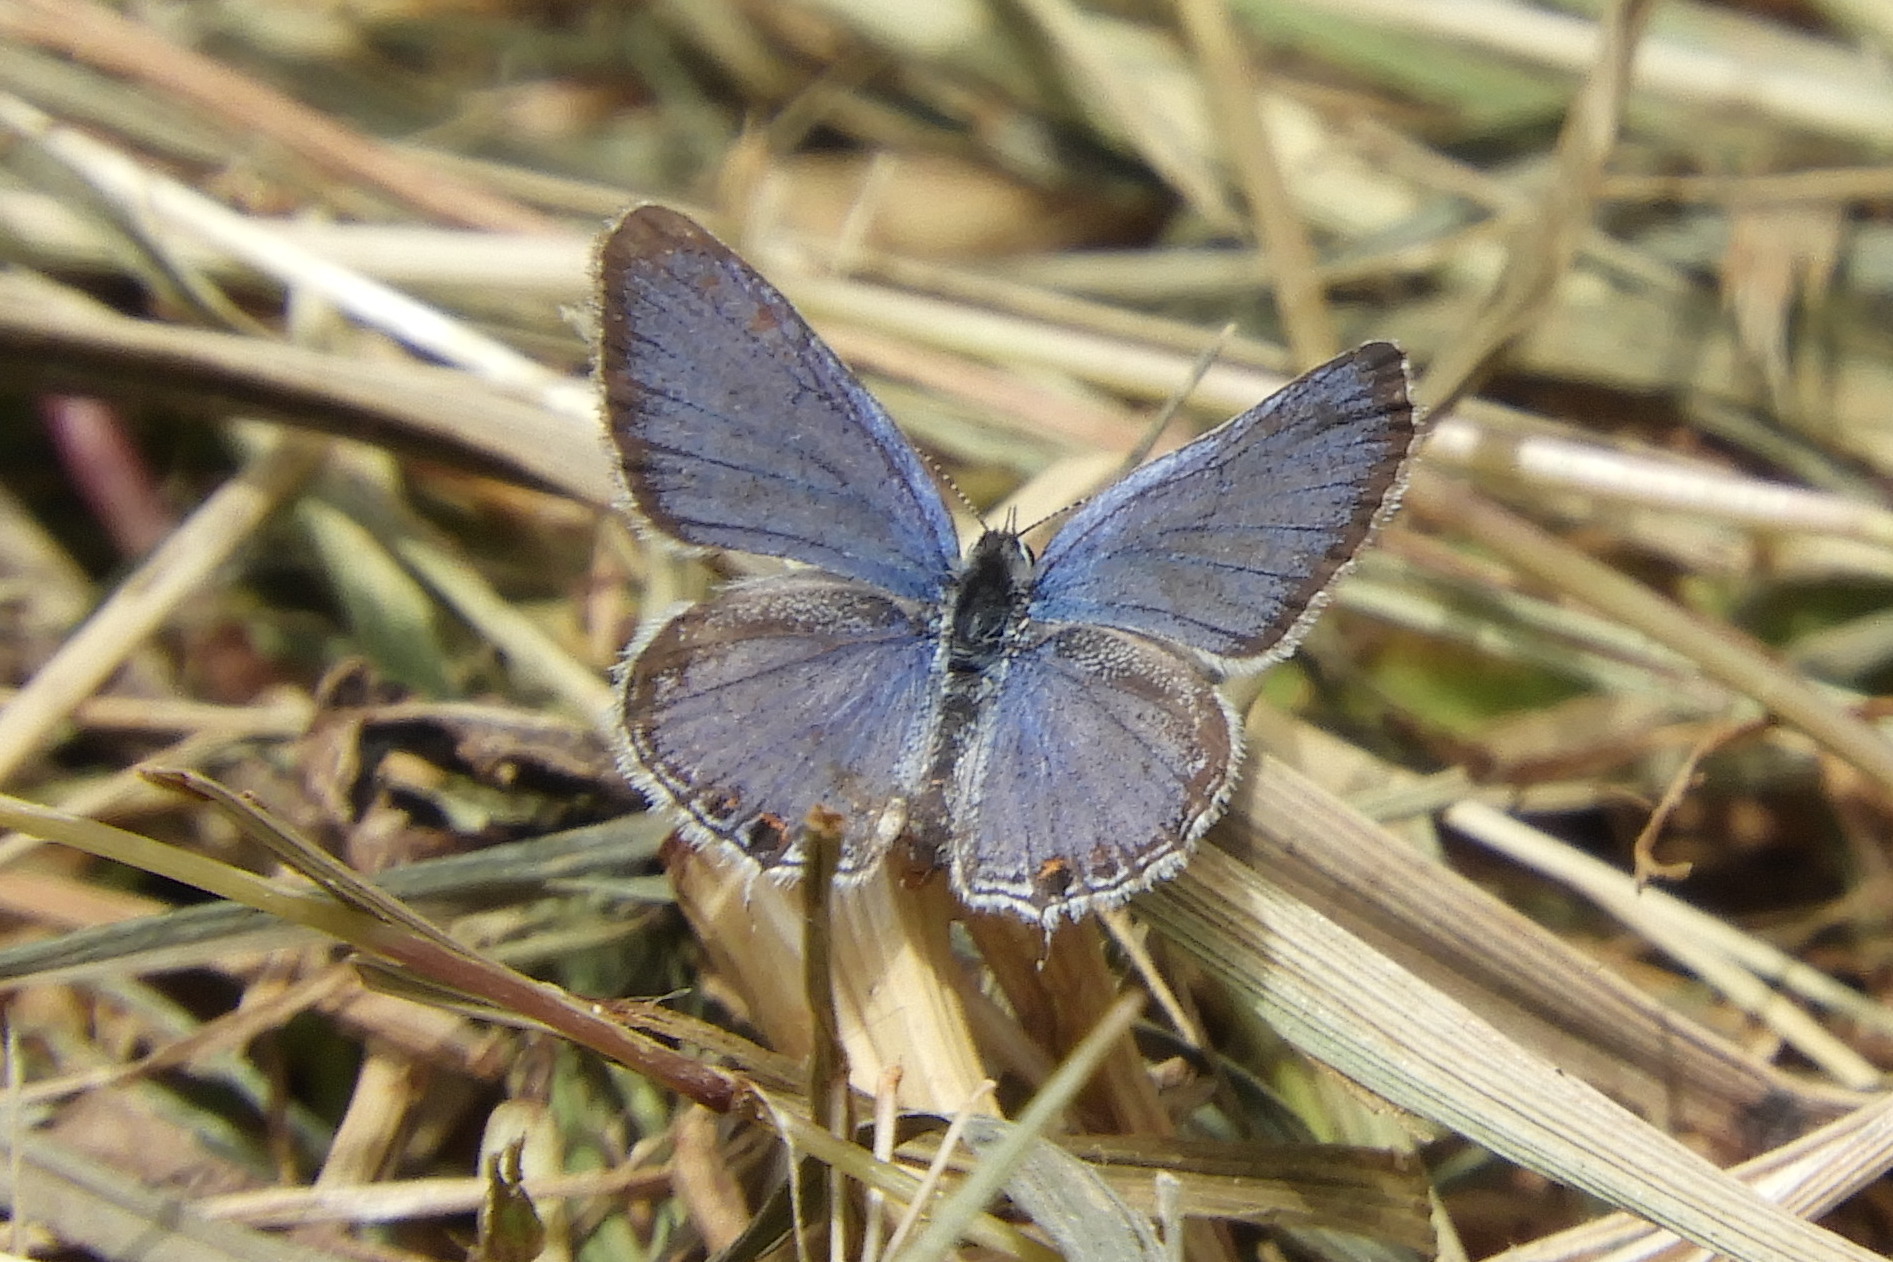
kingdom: Animalia
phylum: Arthropoda
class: Insecta
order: Lepidoptera
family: Lycaenidae
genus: Elkalyce
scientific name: Elkalyce comyntas
